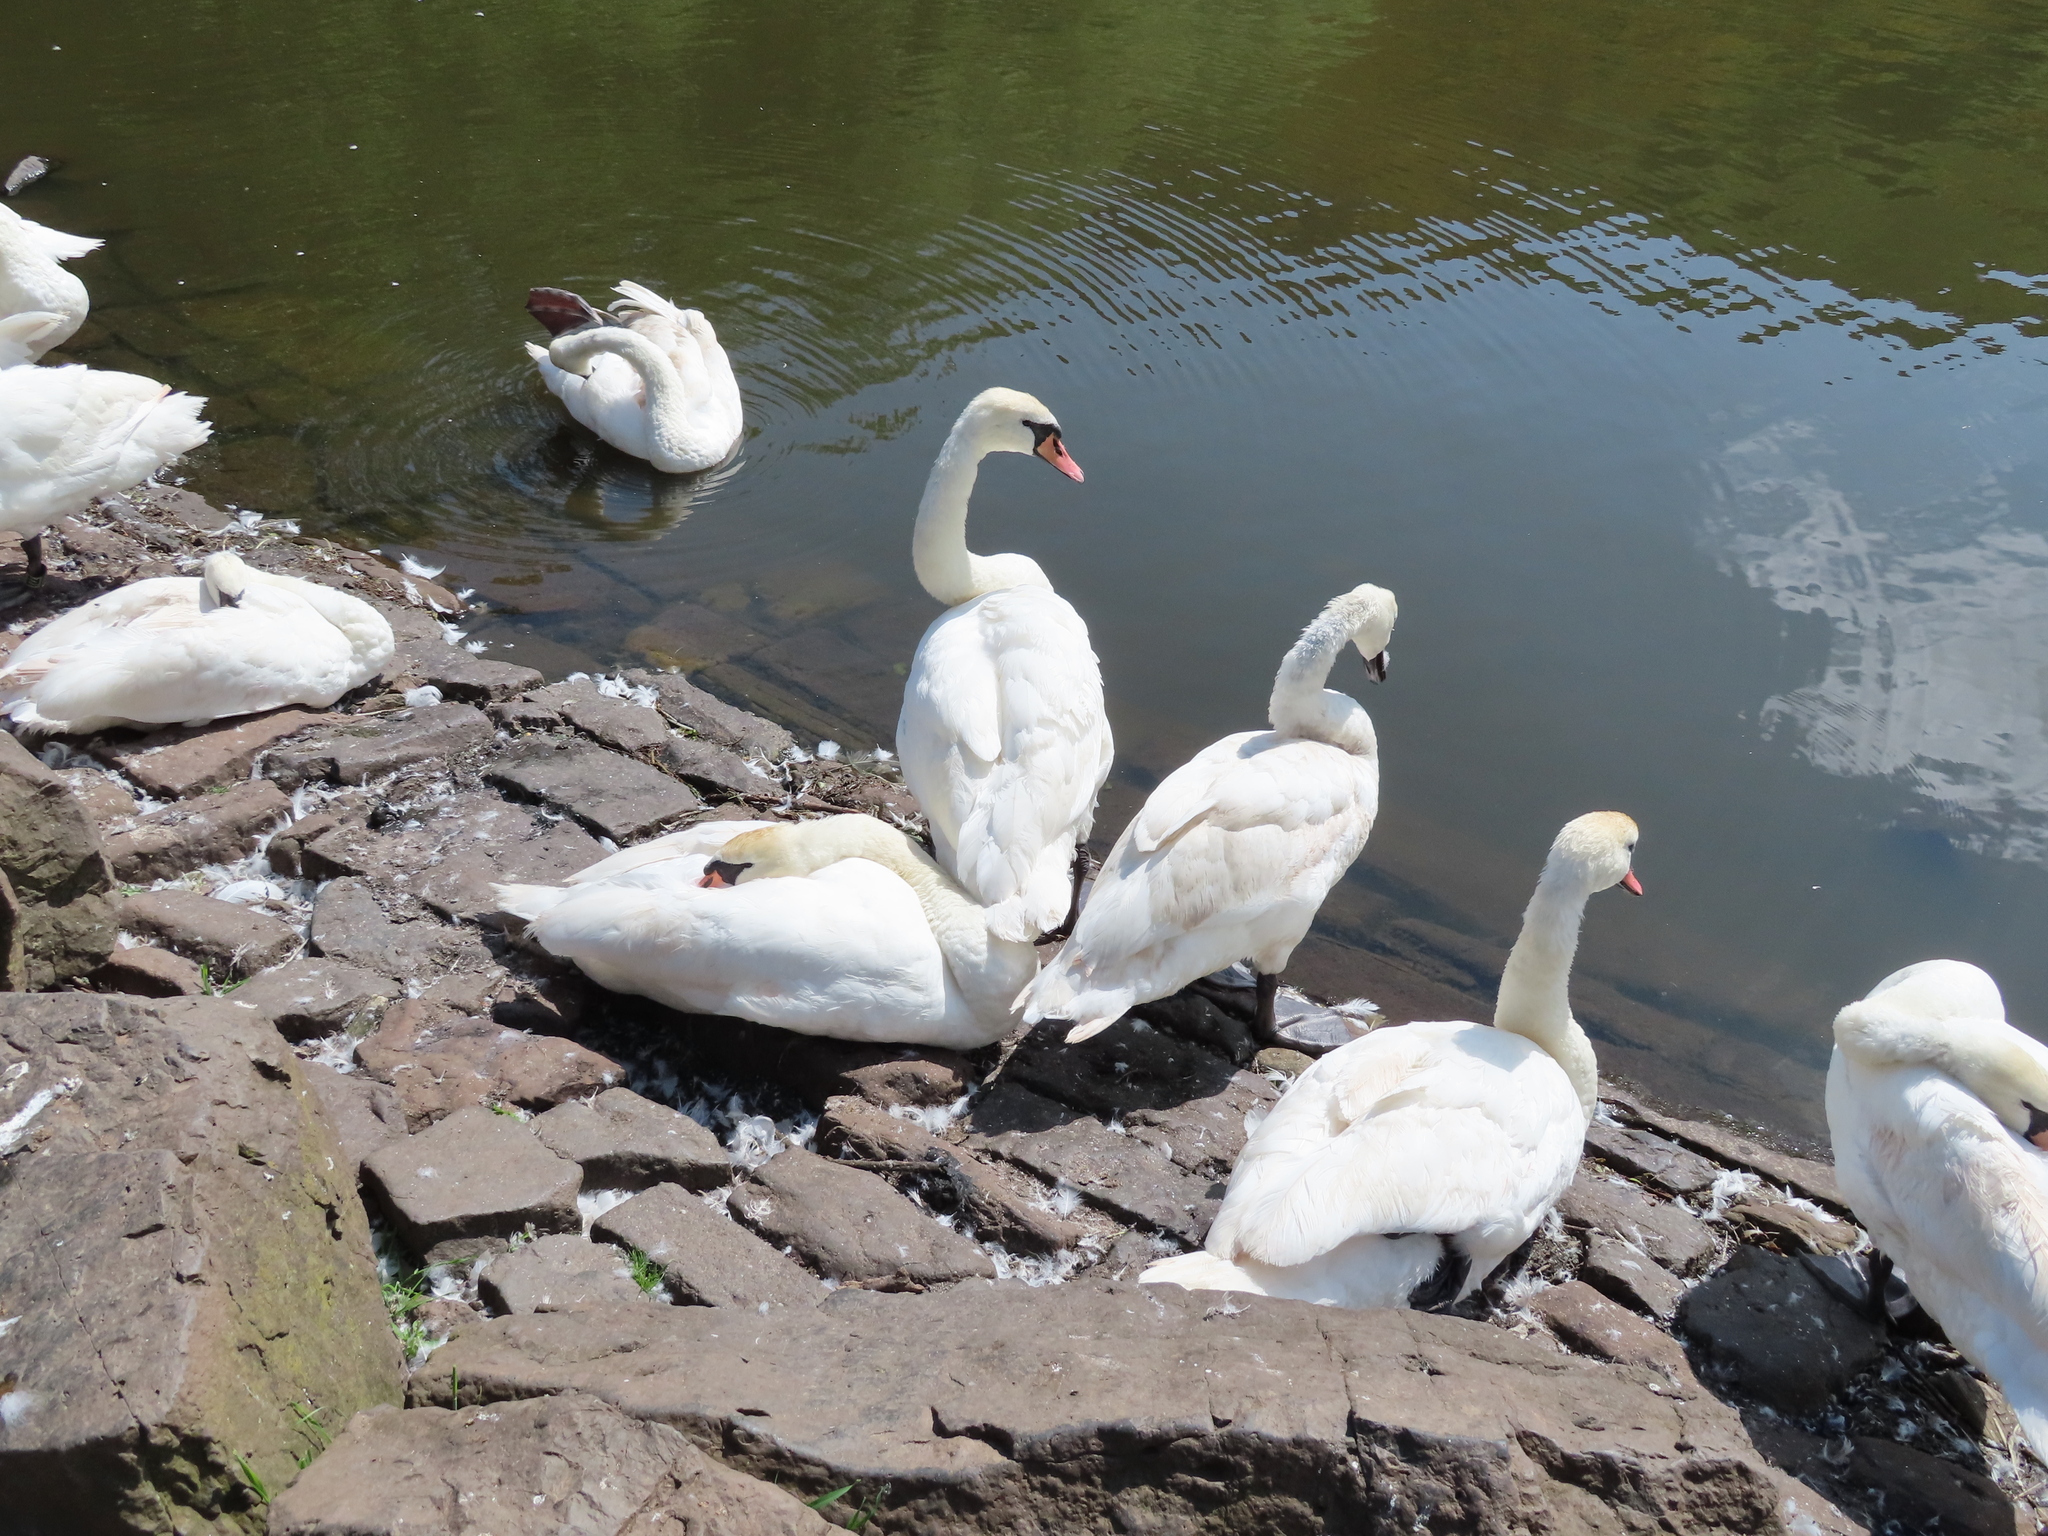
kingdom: Animalia
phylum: Chordata
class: Aves
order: Anseriformes
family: Anatidae
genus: Cygnus
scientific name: Cygnus olor
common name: Mute swan
